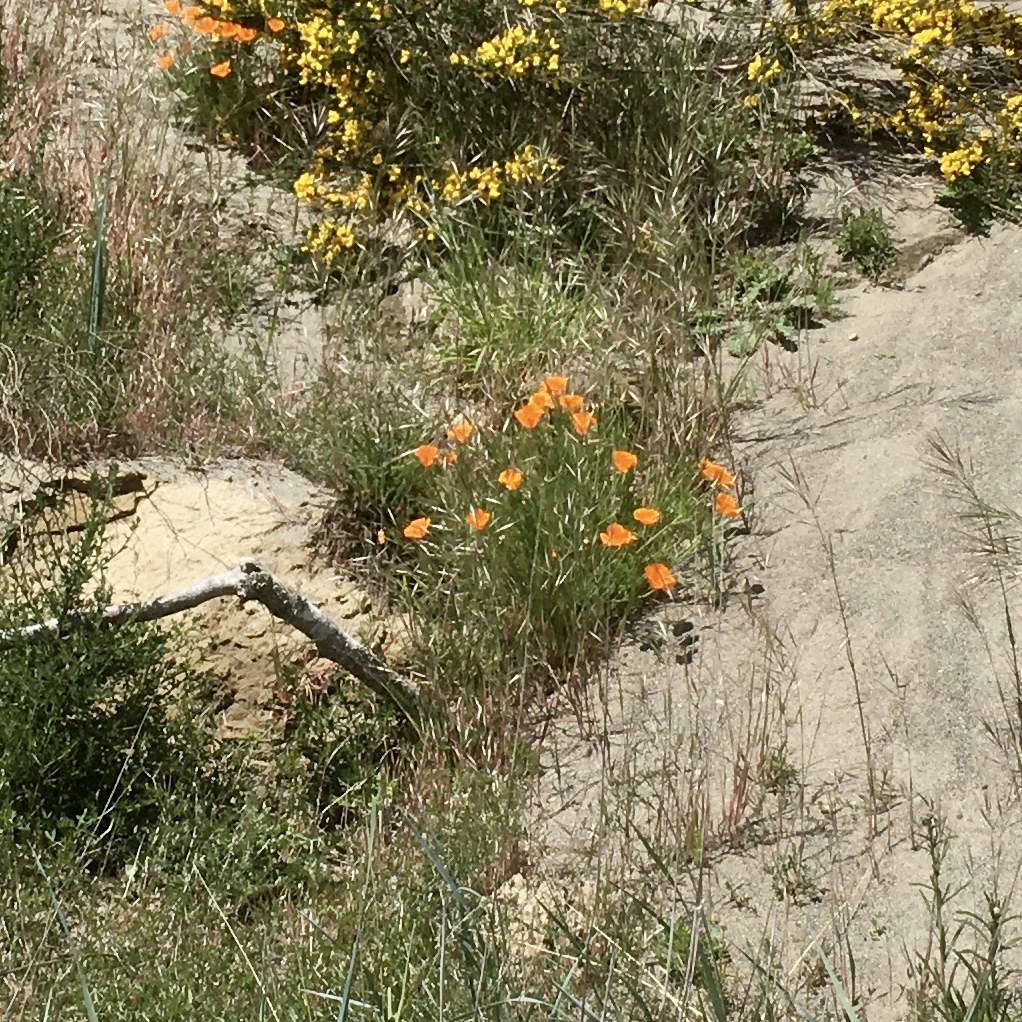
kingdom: Plantae
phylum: Tracheophyta
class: Magnoliopsida
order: Ranunculales
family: Papaveraceae
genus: Eschscholzia
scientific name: Eschscholzia californica
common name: California poppy
